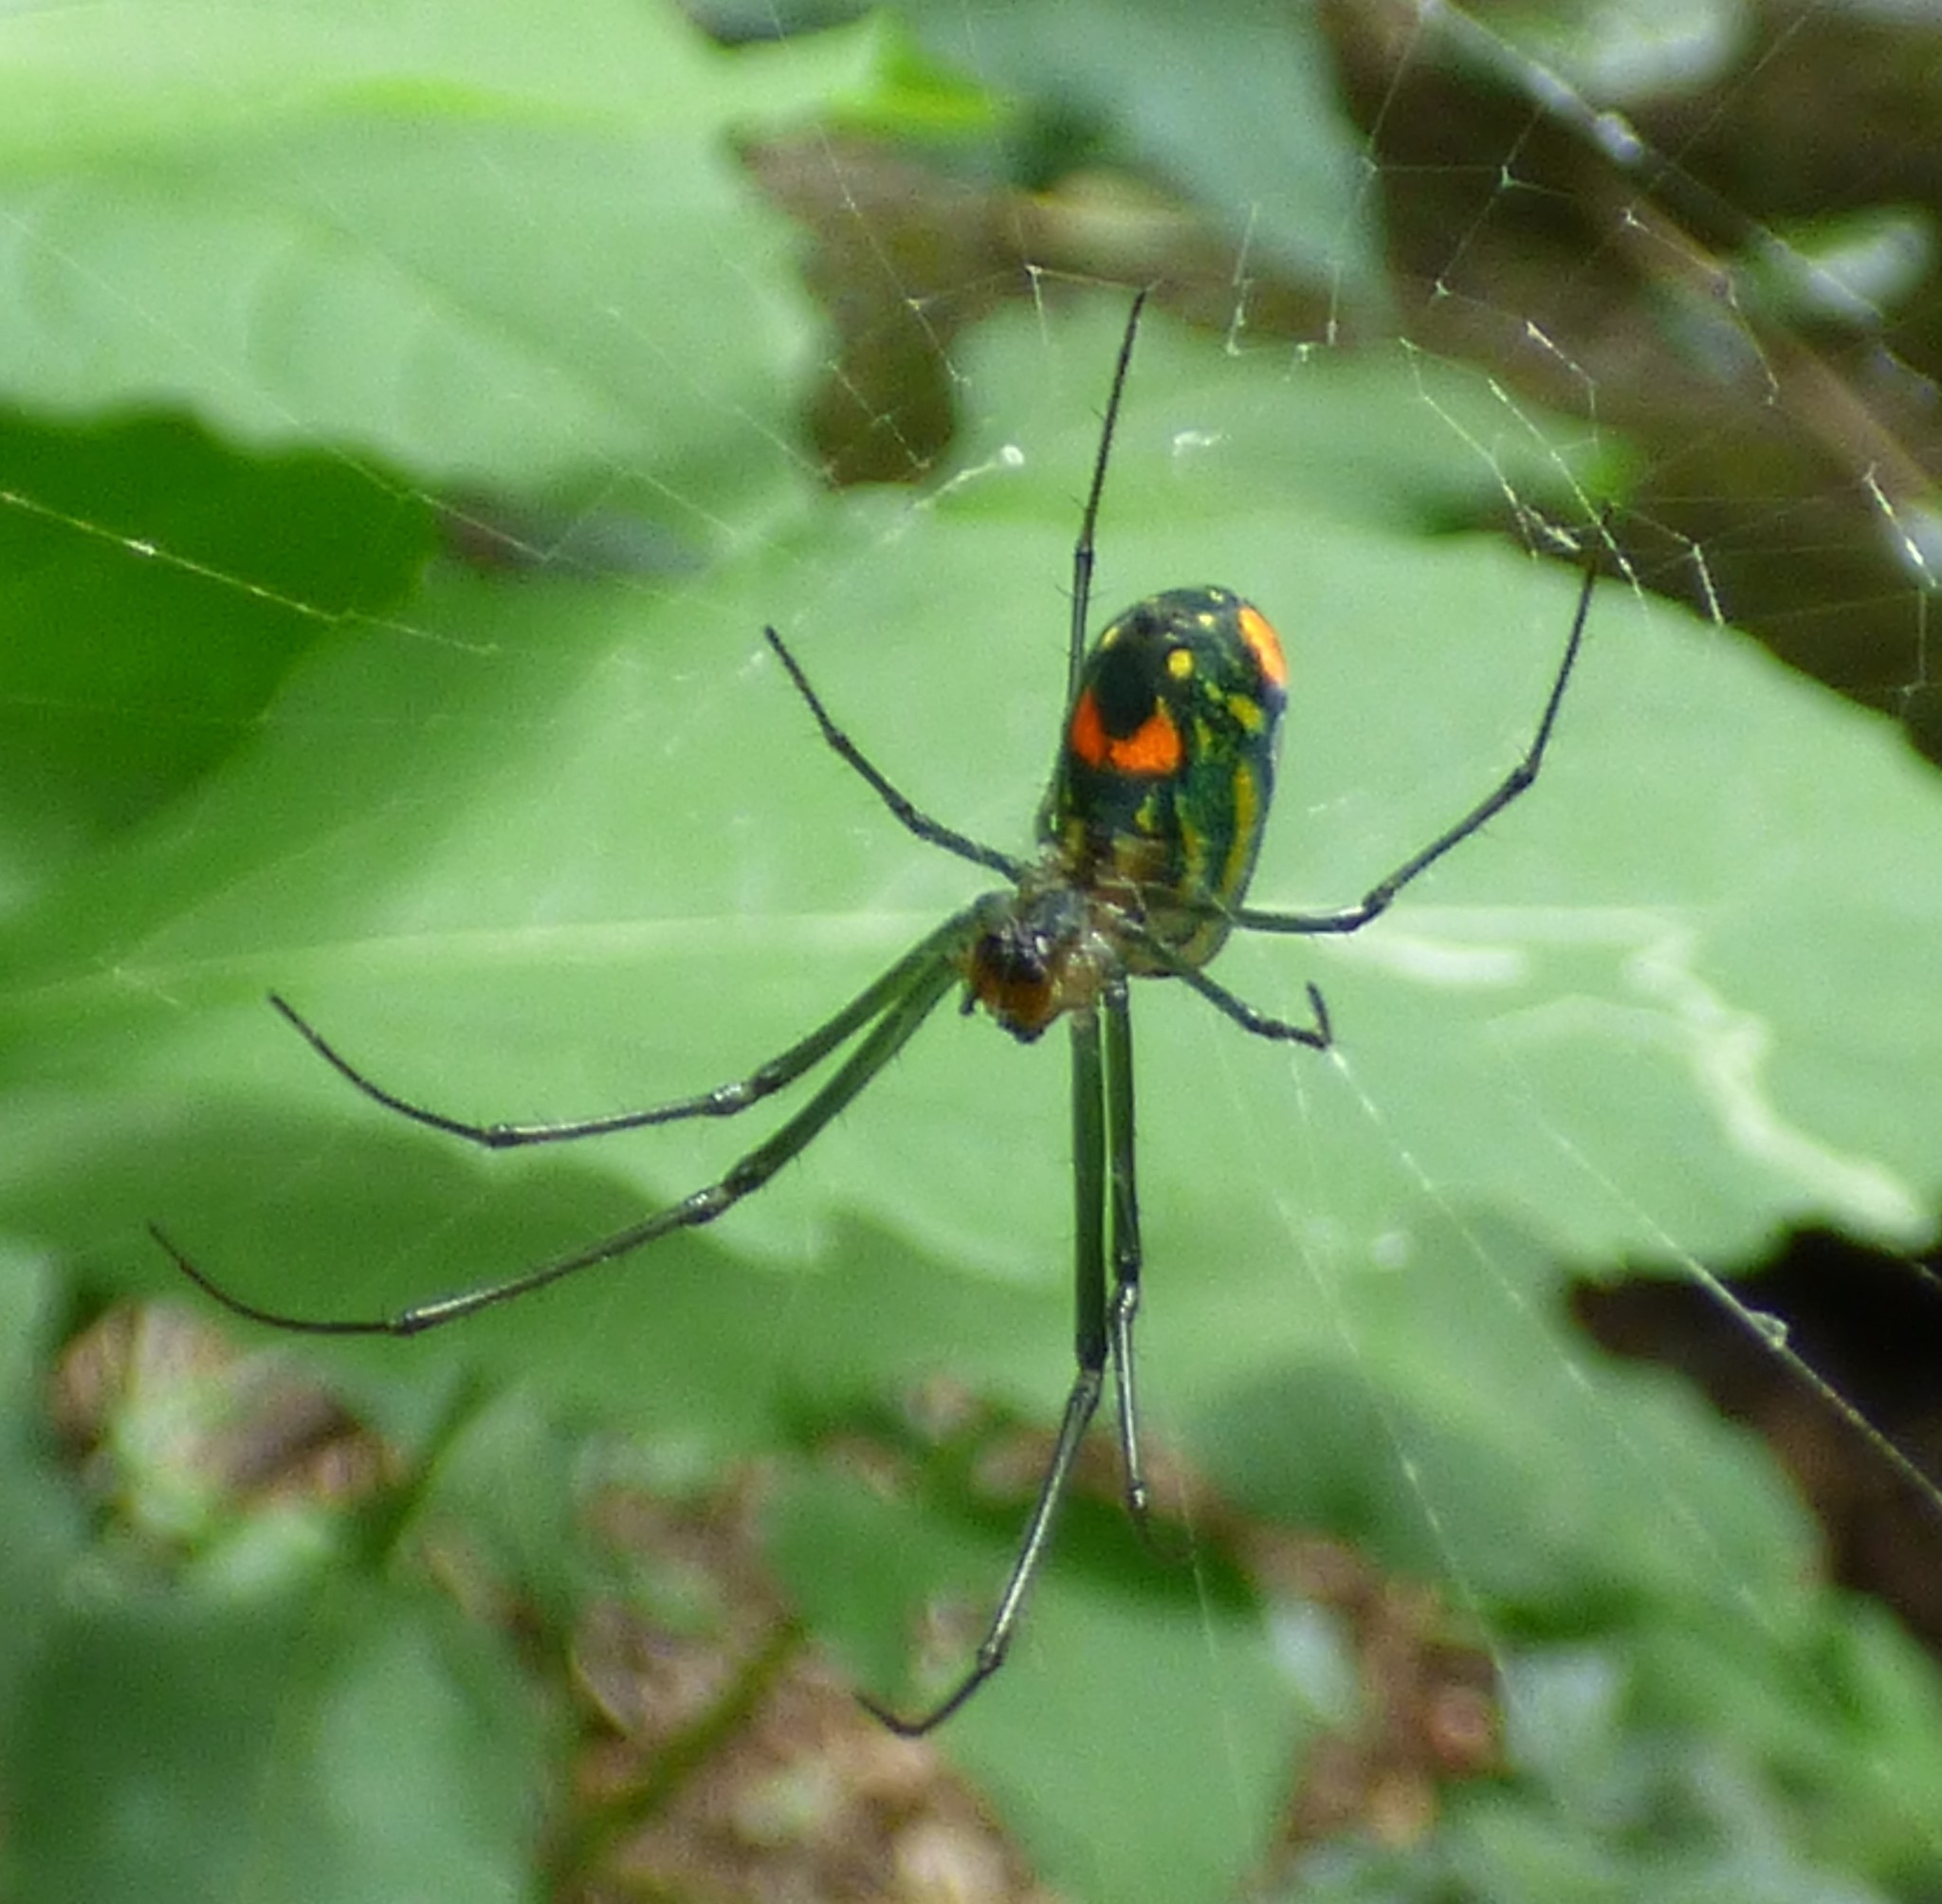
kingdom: Animalia
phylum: Arthropoda
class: Arachnida
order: Araneae
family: Tetragnathidae
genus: Leucauge
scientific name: Leucauge argyrobapta
